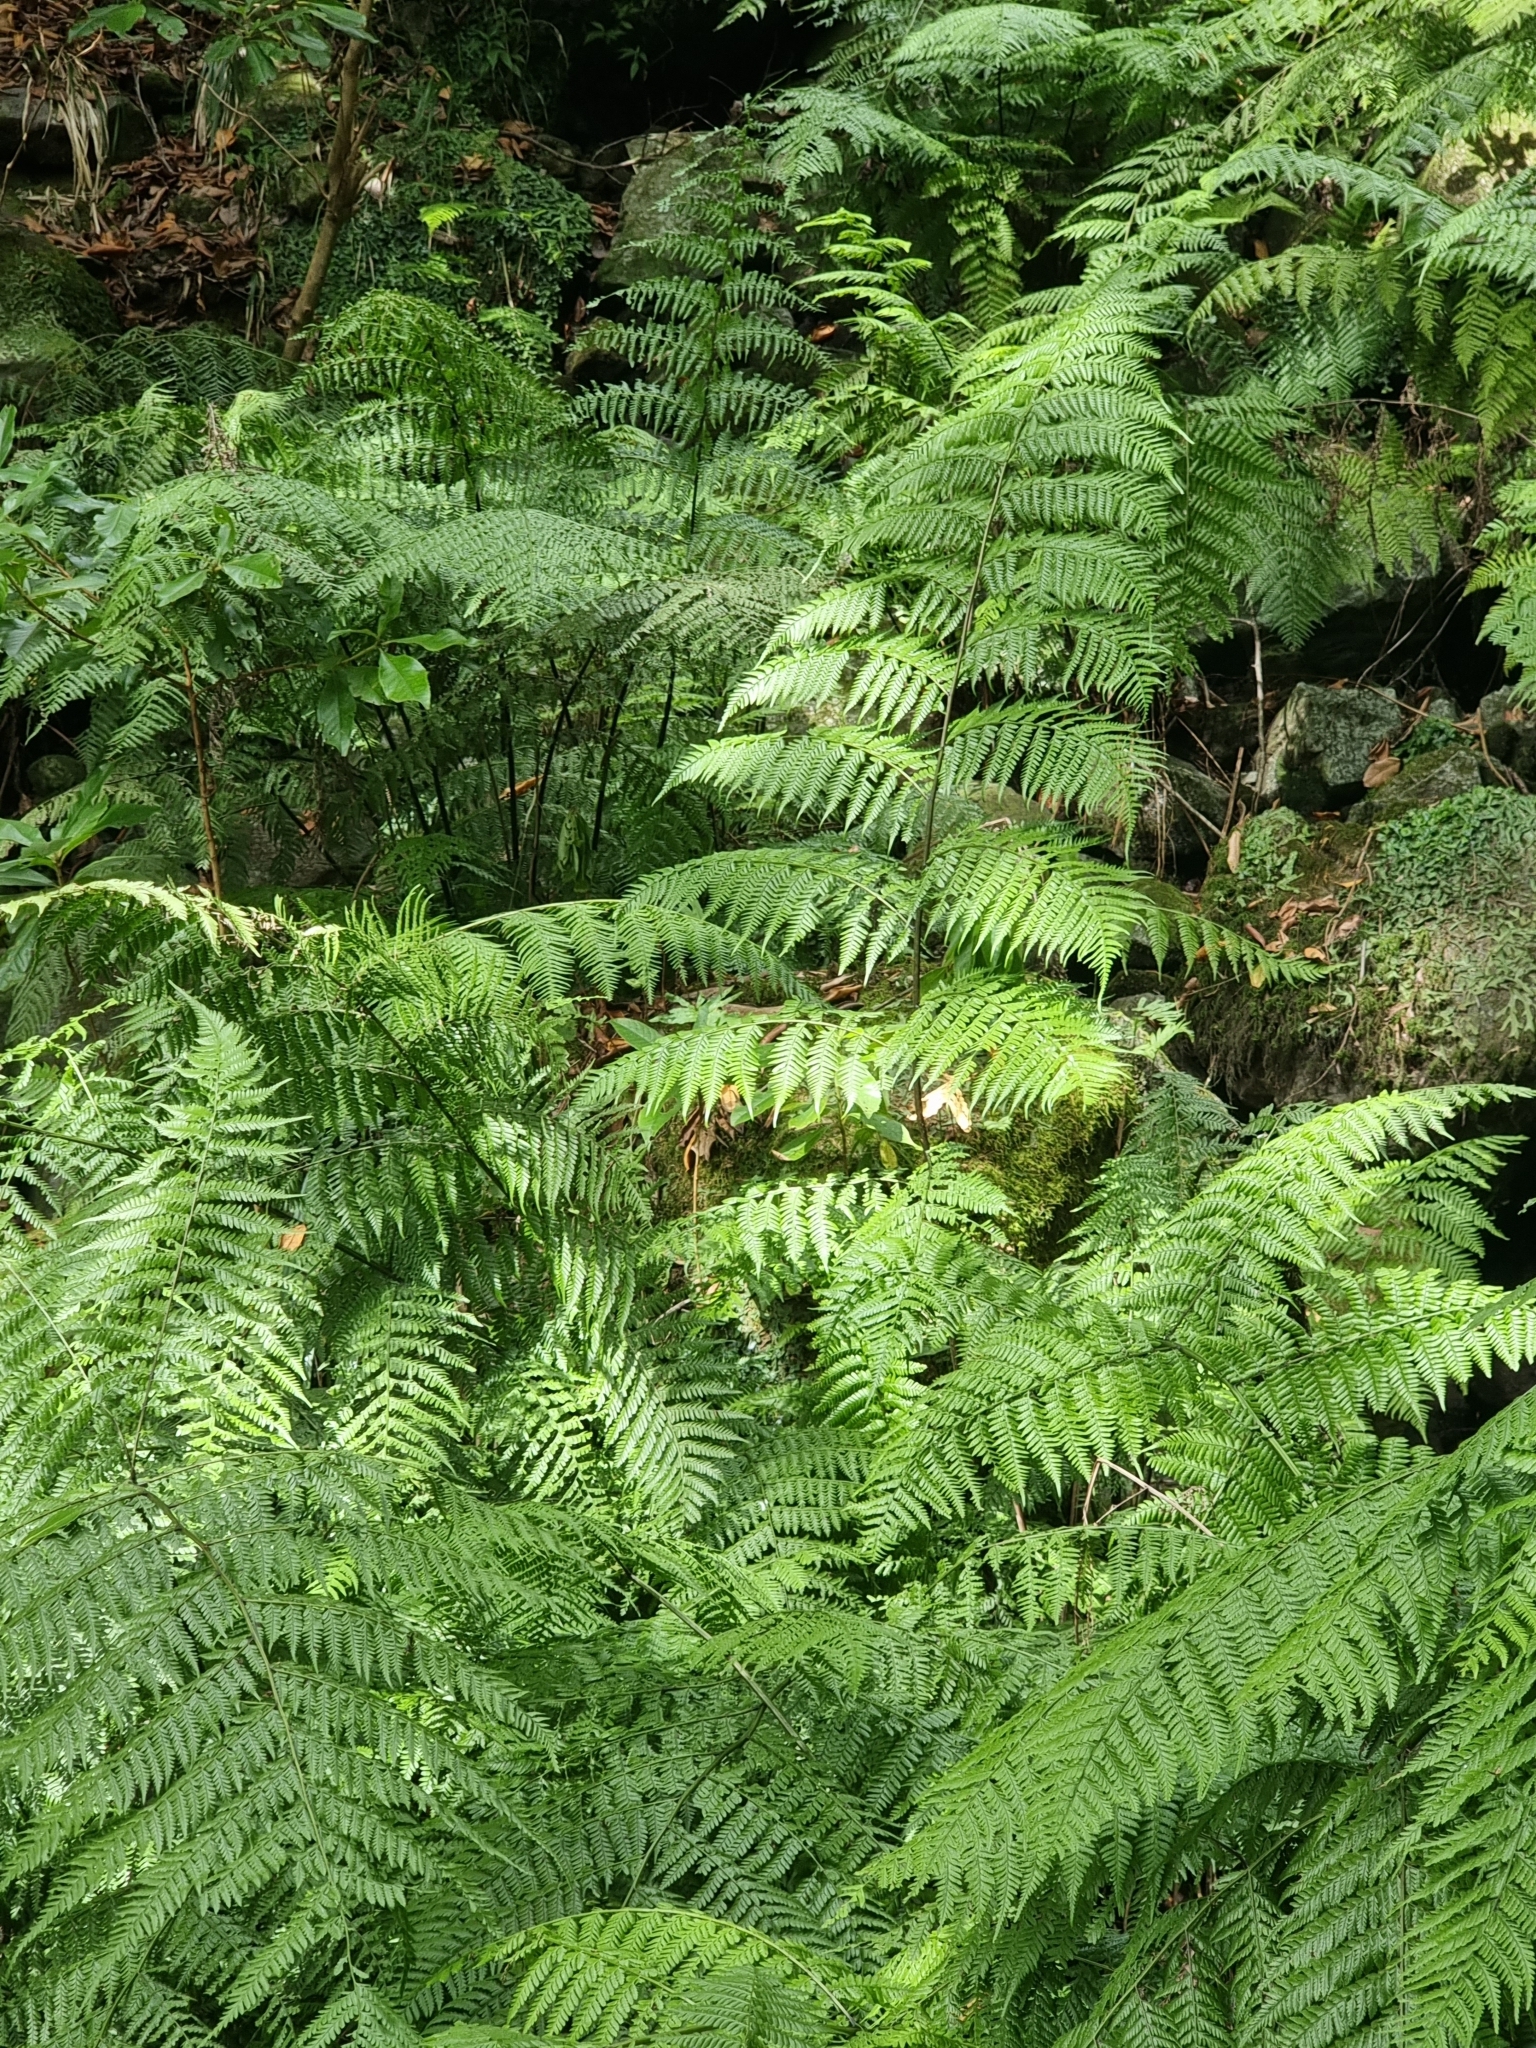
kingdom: Plantae
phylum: Tracheophyta
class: Polypodiopsida
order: Polypodiales
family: Athyriaceae
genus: Diplazium
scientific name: Diplazium caudatum
